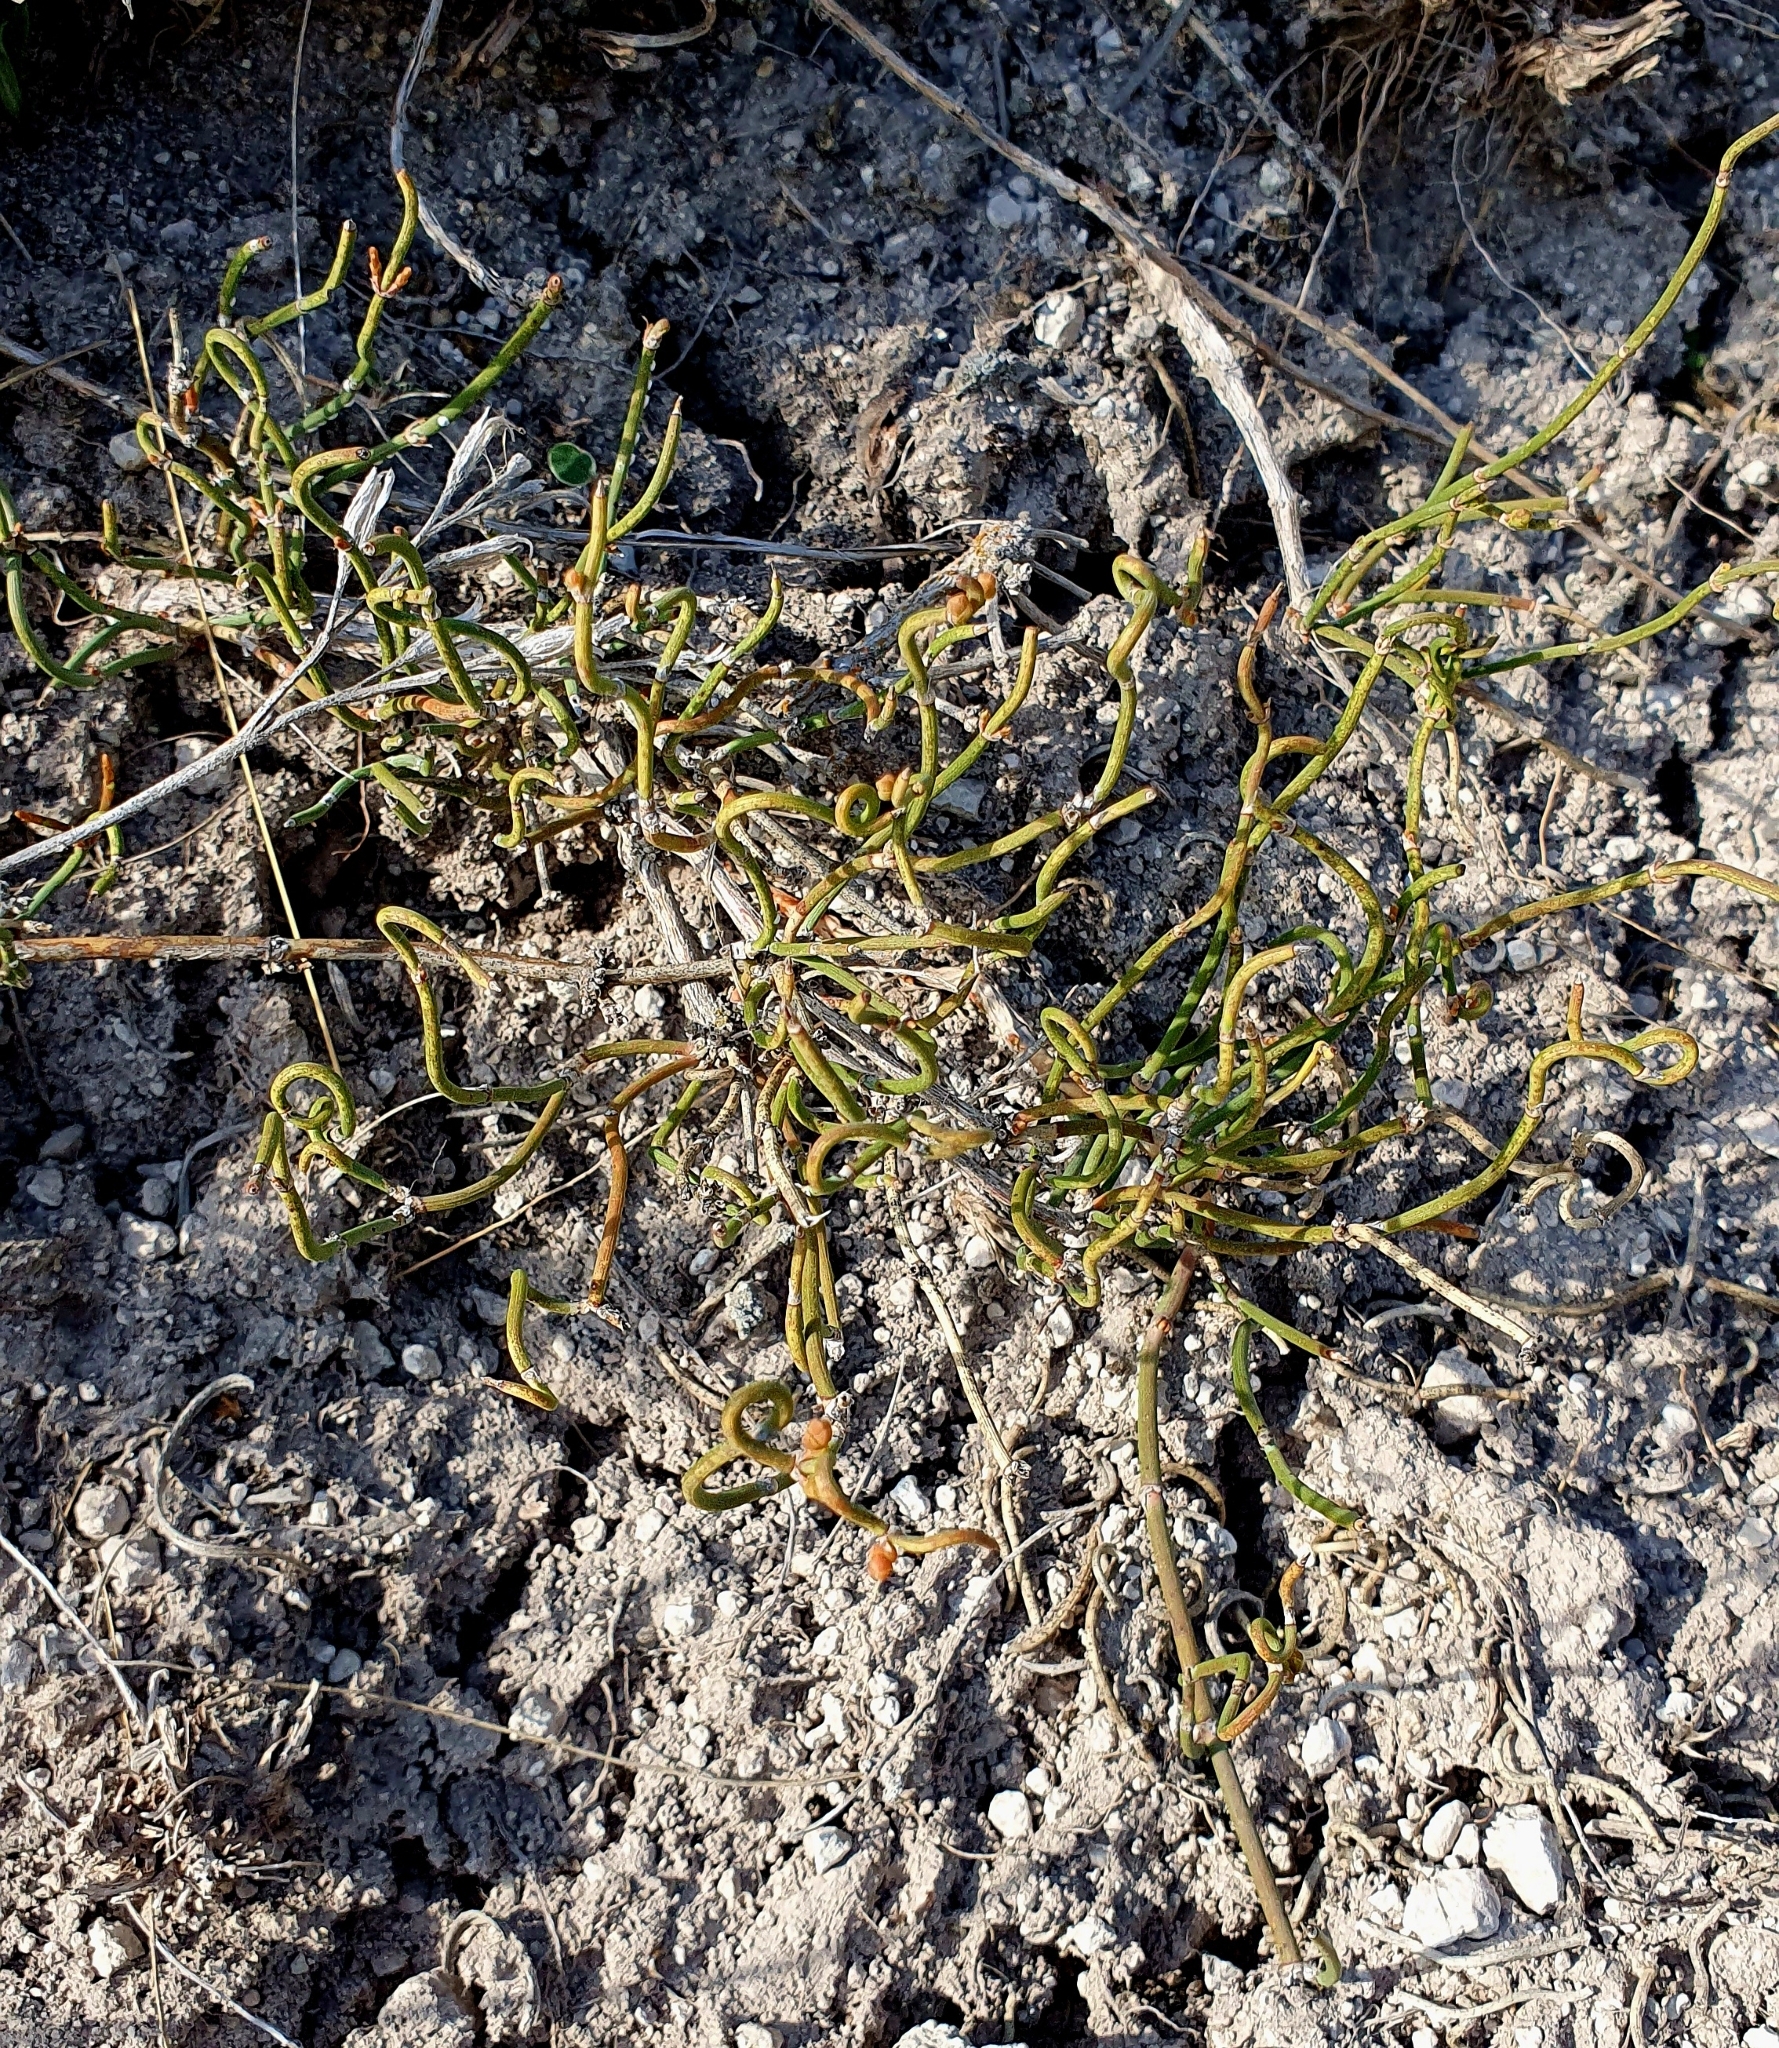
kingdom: Plantae
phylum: Tracheophyta
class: Gnetopsida
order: Ephedrales
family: Ephedraceae
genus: Ephedra
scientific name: Ephedra distachya
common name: Sea grape
